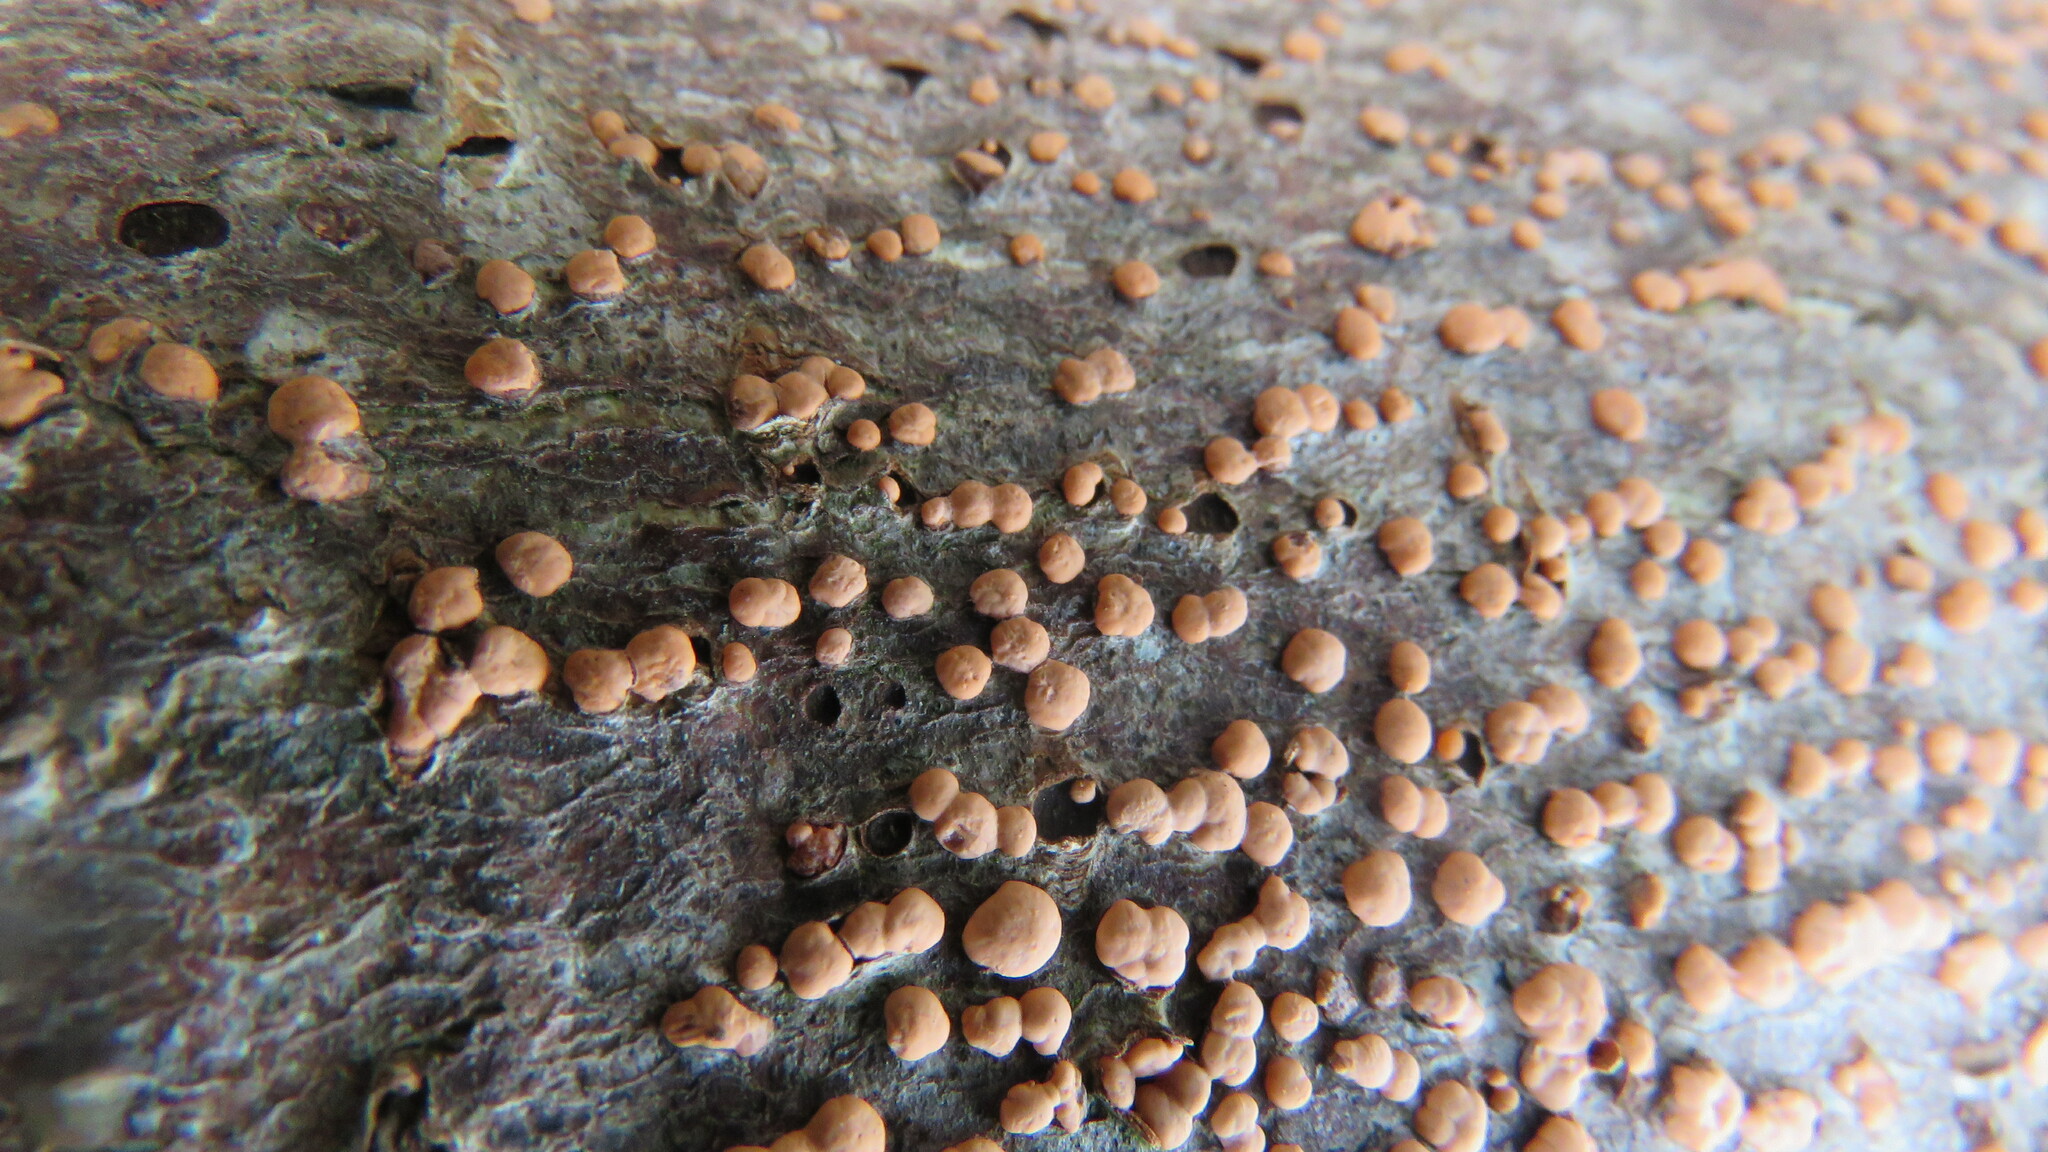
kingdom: Fungi
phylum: Ascomycota
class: Sordariomycetes
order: Hypocreales
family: Nectriaceae
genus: Nectria
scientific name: Nectria cinnabarina
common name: Coral spot
